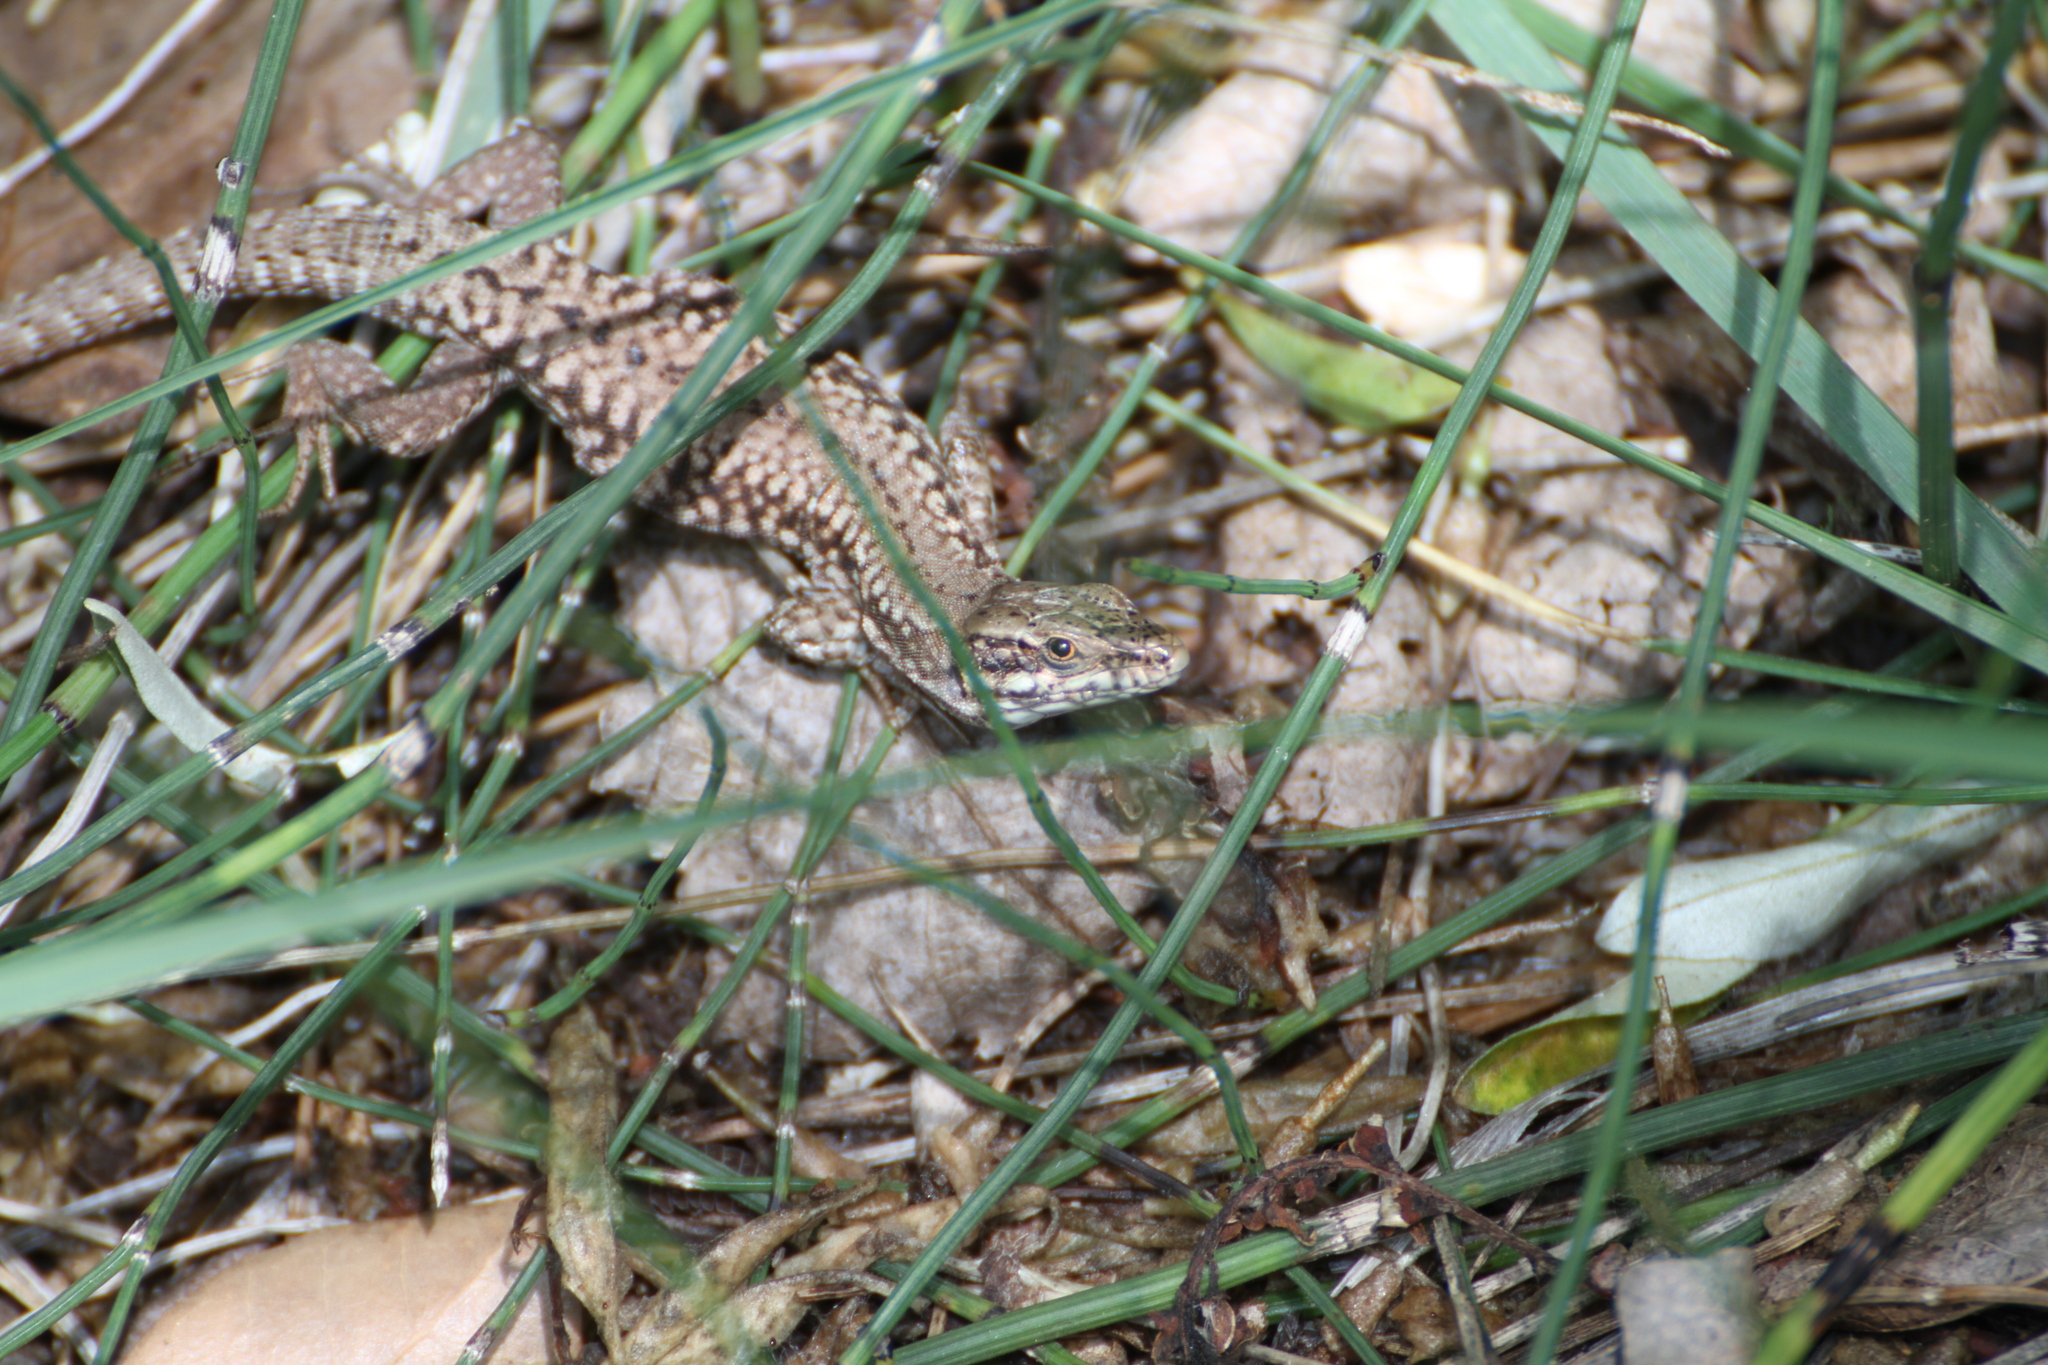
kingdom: Animalia
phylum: Chordata
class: Squamata
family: Lacertidae
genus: Podarcis
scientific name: Podarcis muralis
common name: Common wall lizard
